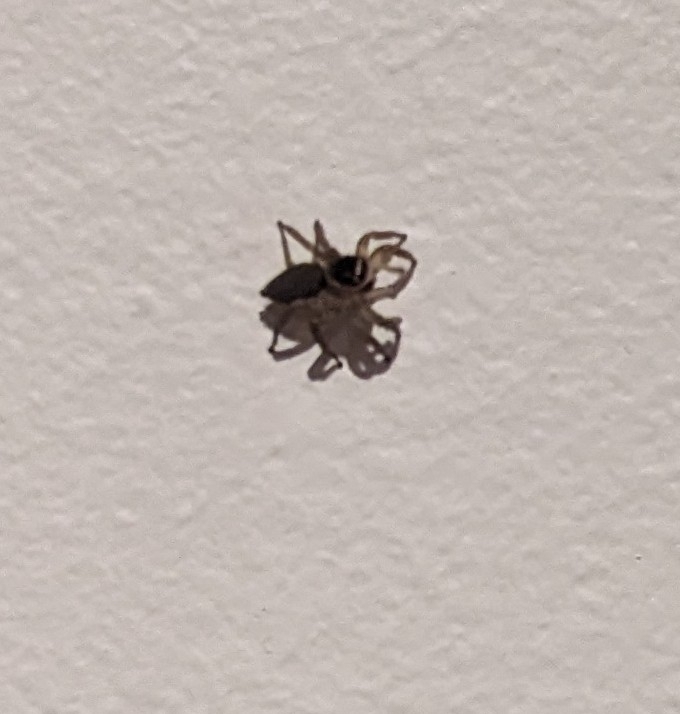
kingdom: Animalia
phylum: Arthropoda
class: Arachnida
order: Araneae
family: Salticidae
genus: Maratus
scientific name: Maratus griseus
